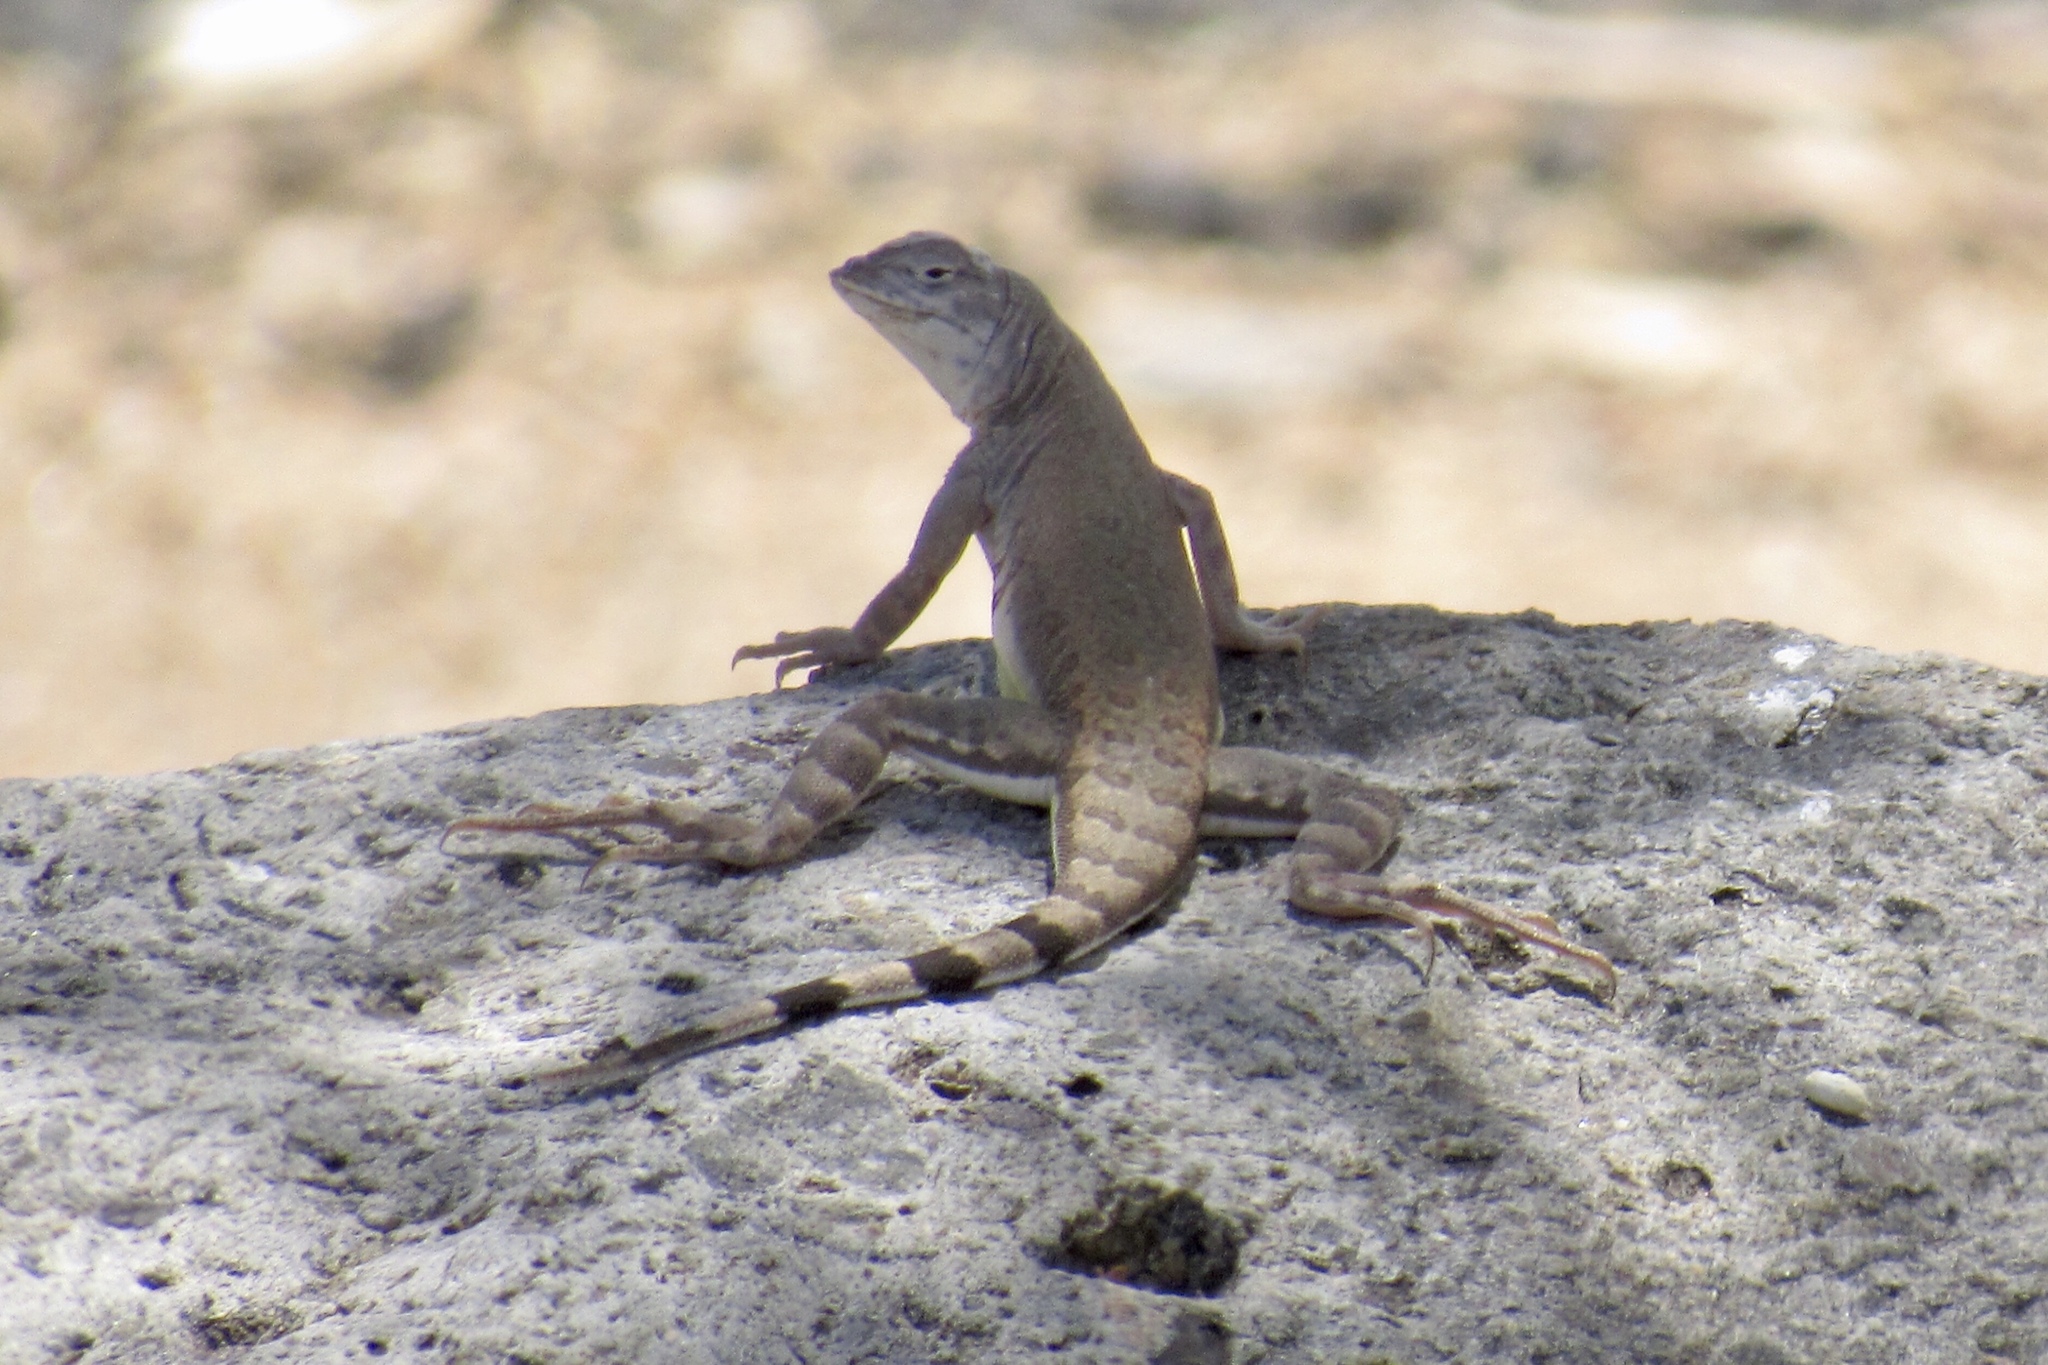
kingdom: Animalia
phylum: Chordata
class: Squamata
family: Phrynosomatidae
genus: Callisaurus
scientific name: Callisaurus draconoides
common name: Zebra-tailed lizard
